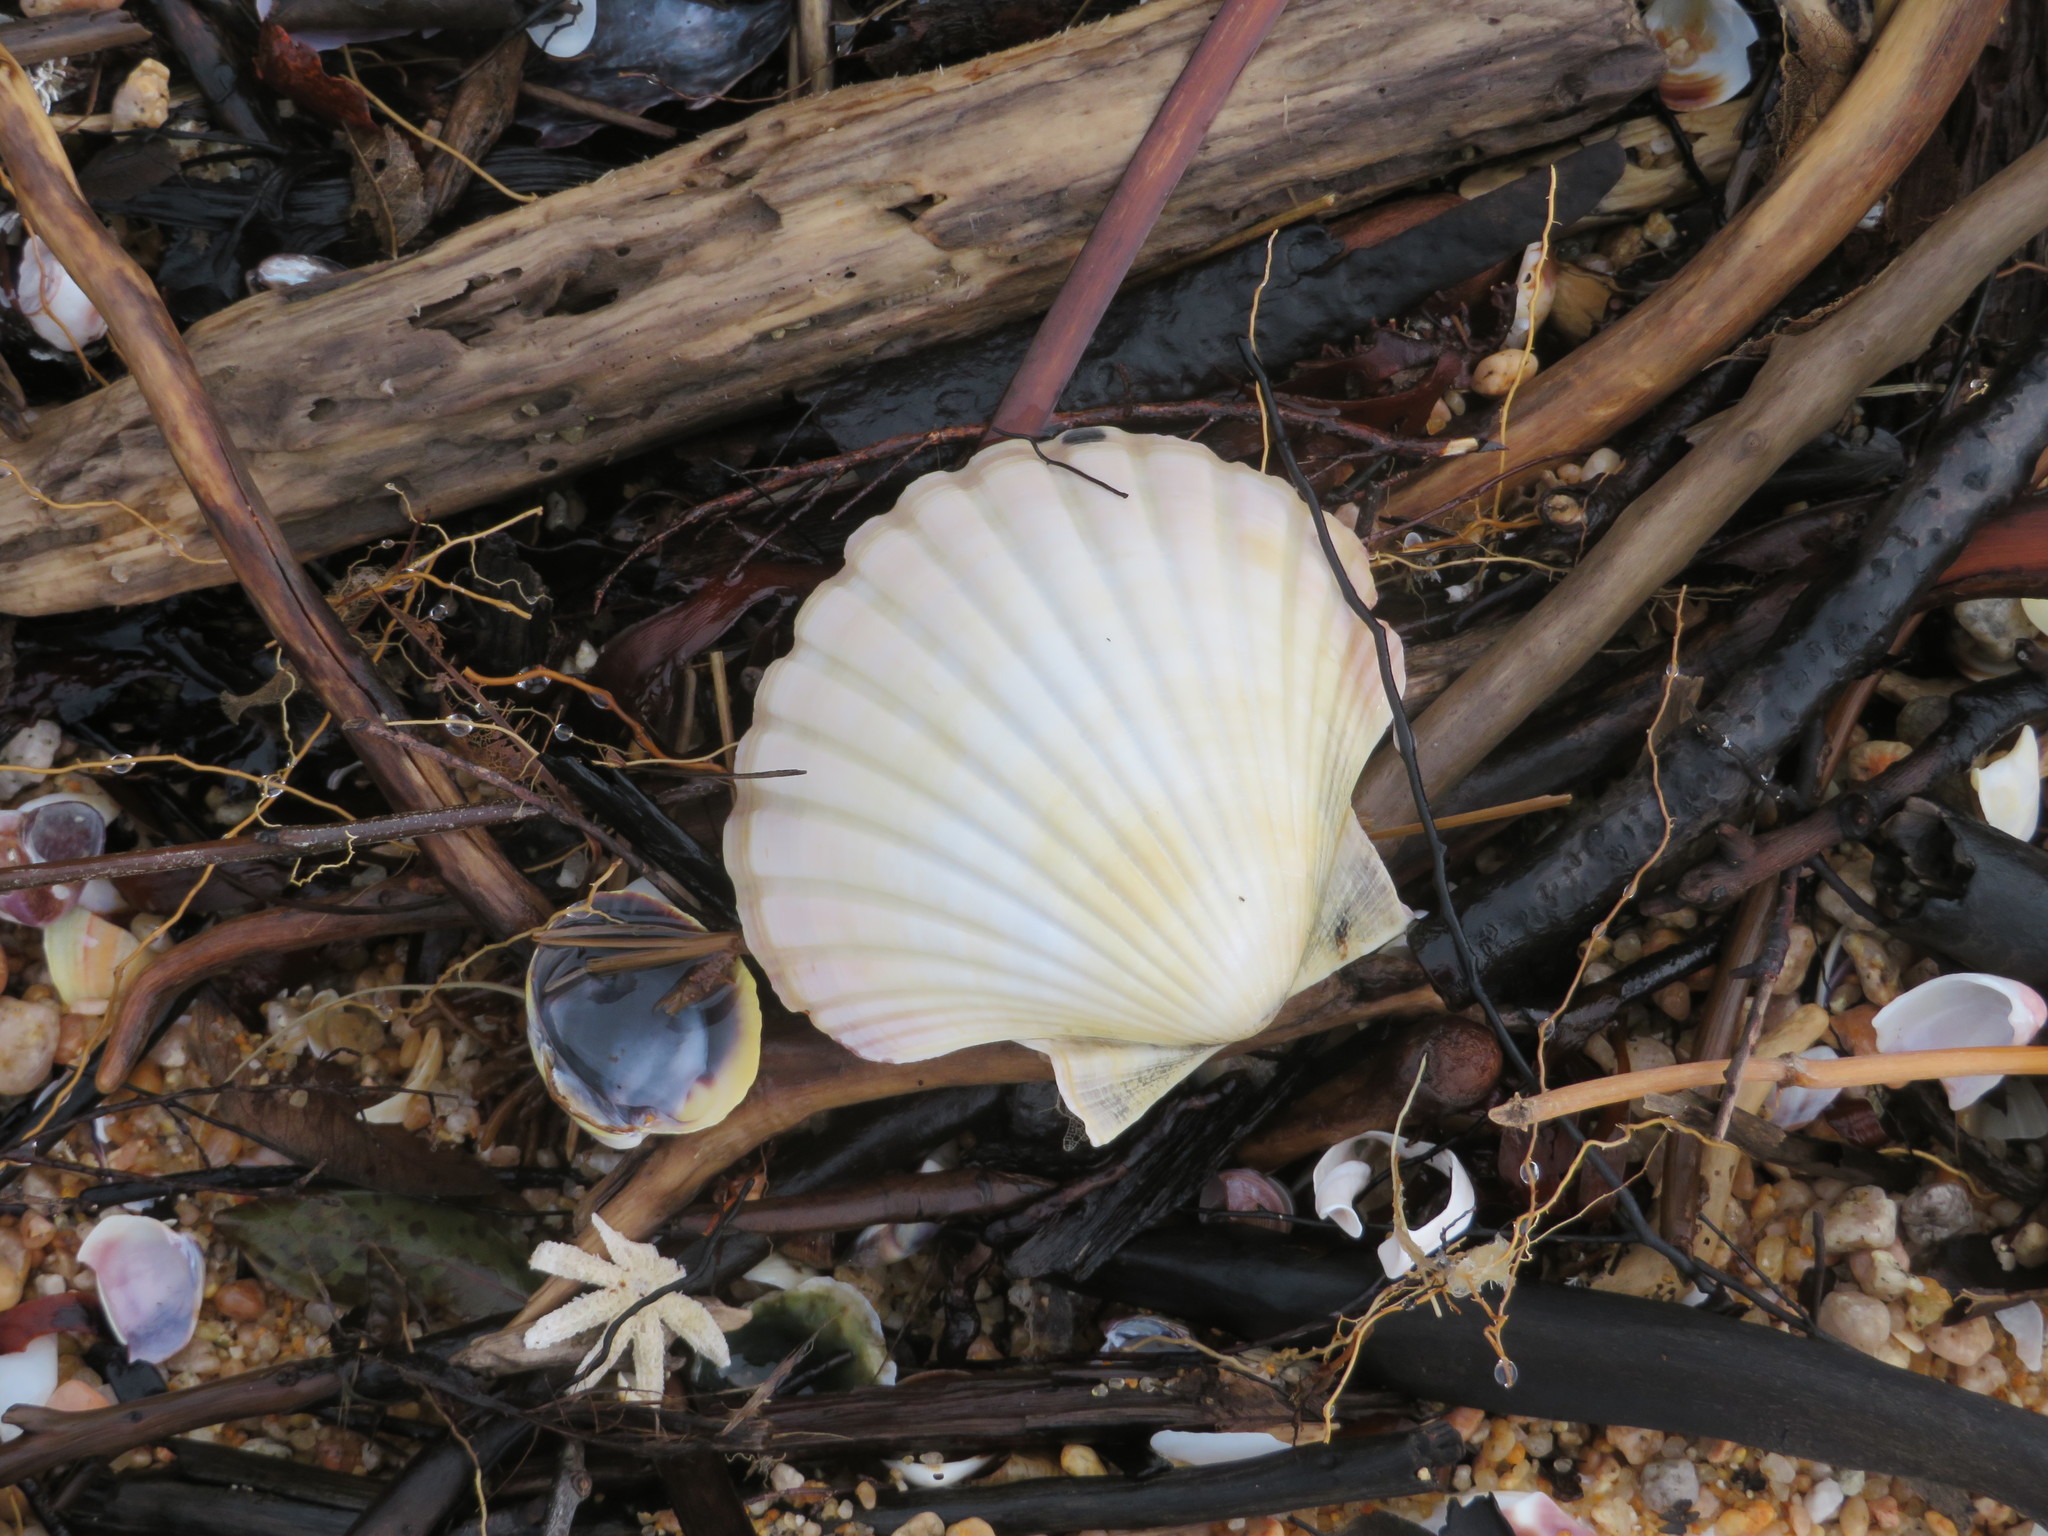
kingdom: Animalia
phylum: Mollusca
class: Bivalvia
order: Pectinida
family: Pectinidae
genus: Pecten
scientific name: Pecten novaezelandiae
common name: New zealand scallop
